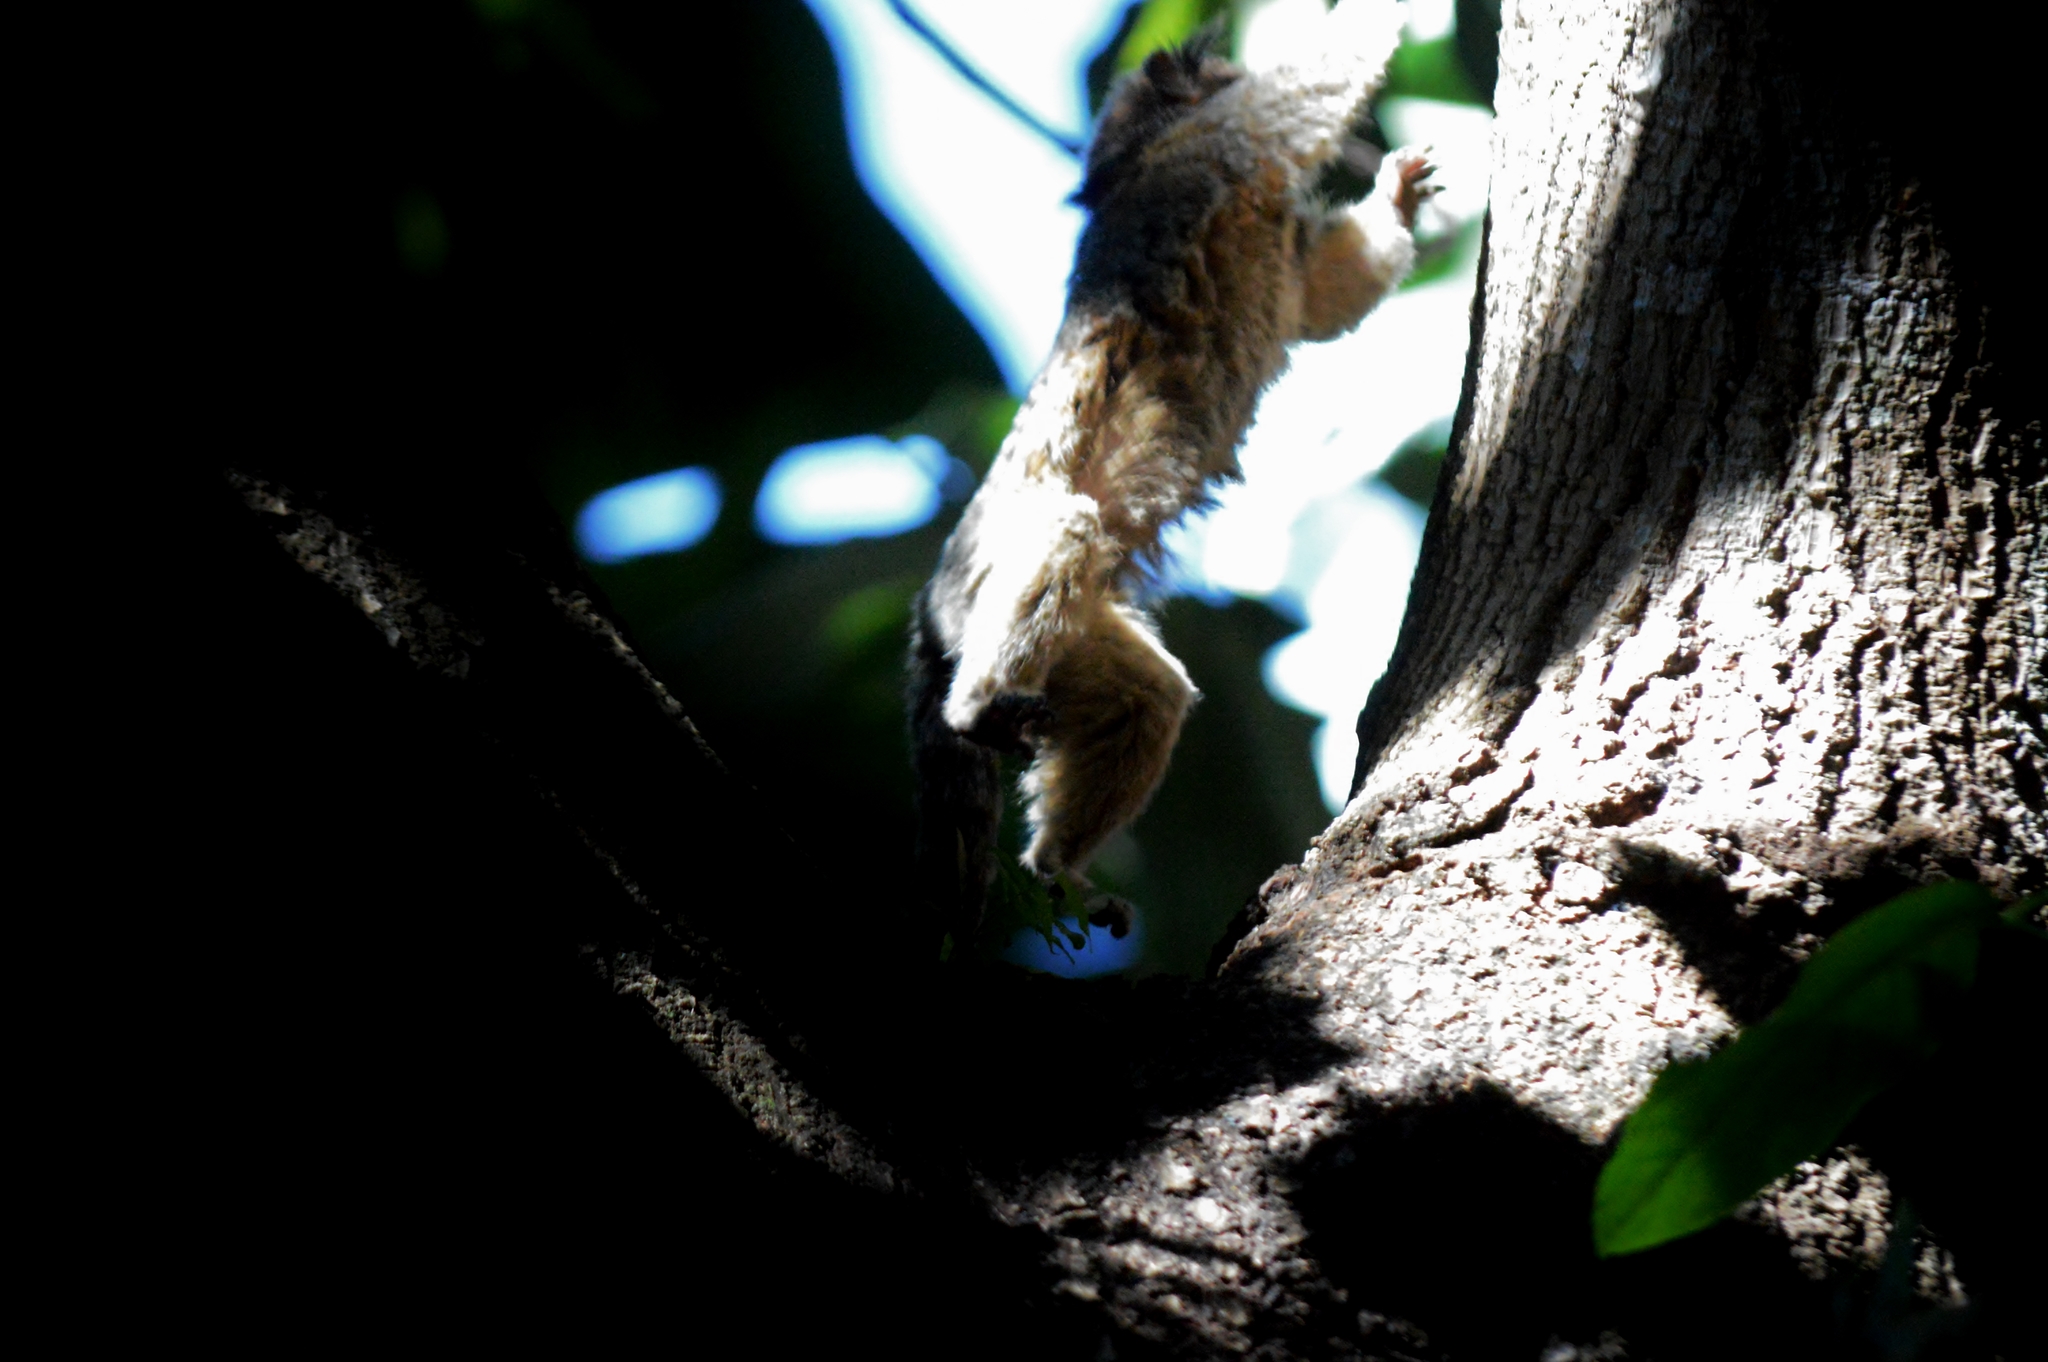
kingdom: Animalia
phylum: Chordata
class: Mammalia
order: Primates
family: Callitrichidae
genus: Callithrix
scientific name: Callithrix penicillata
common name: Black-tufted marmoset
